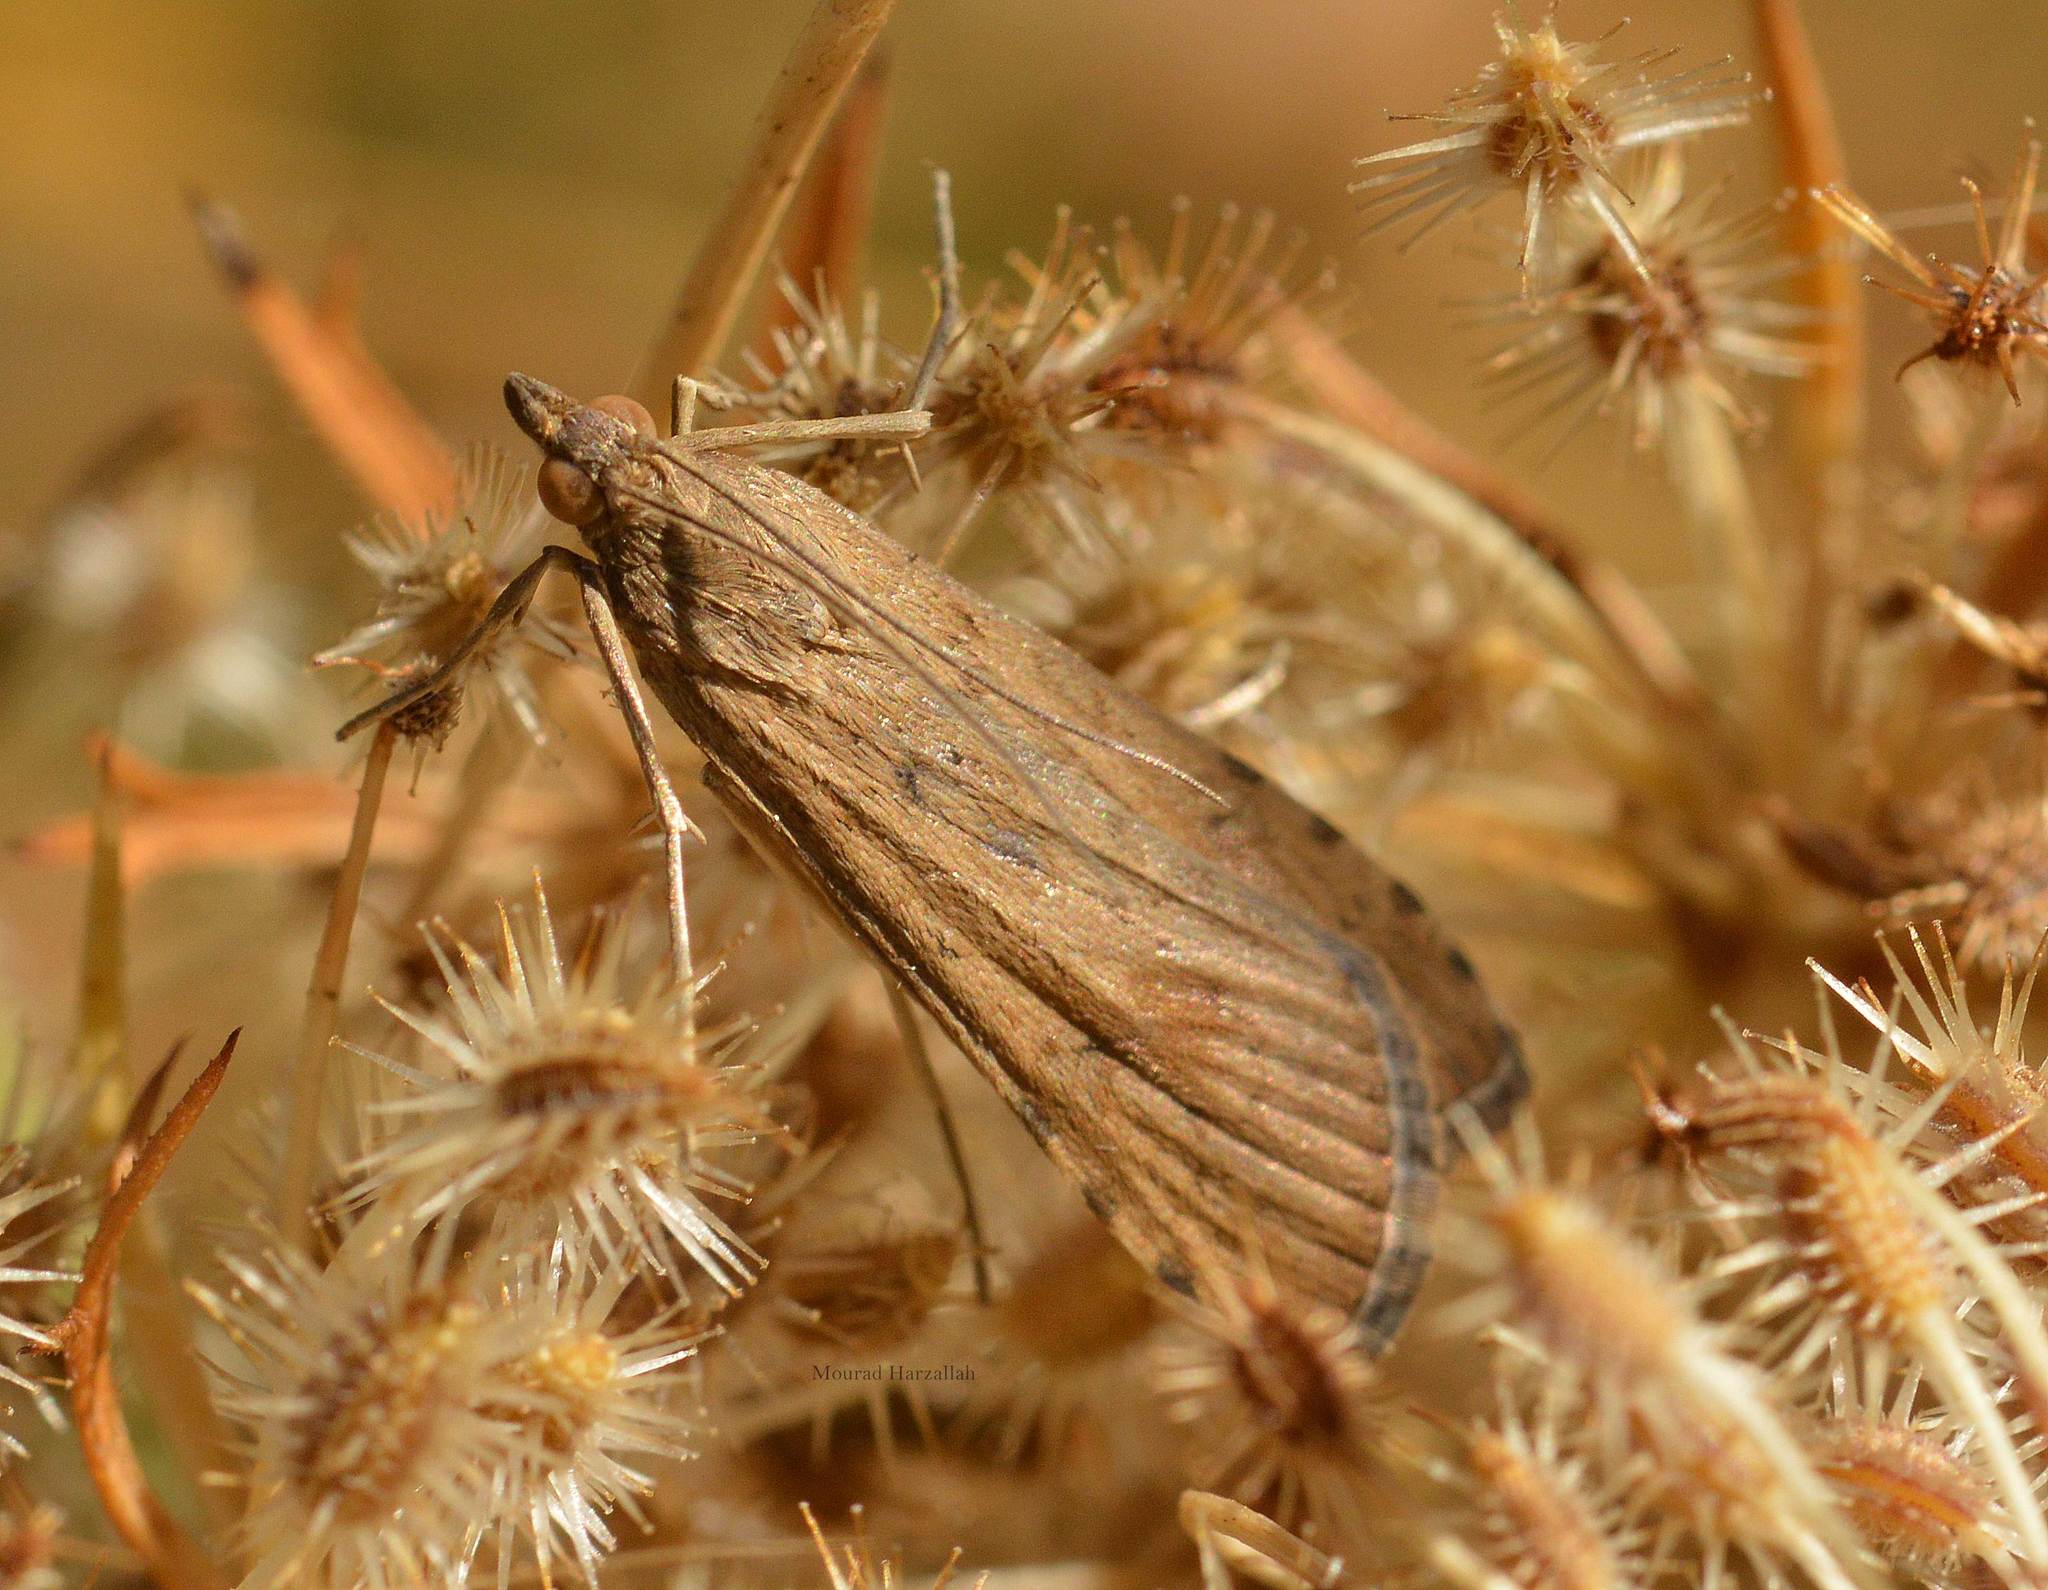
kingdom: Animalia
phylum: Arthropoda
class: Insecta
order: Lepidoptera
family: Crambidae
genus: Nomophila
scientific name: Nomophila noctuella
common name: Rush veneer
